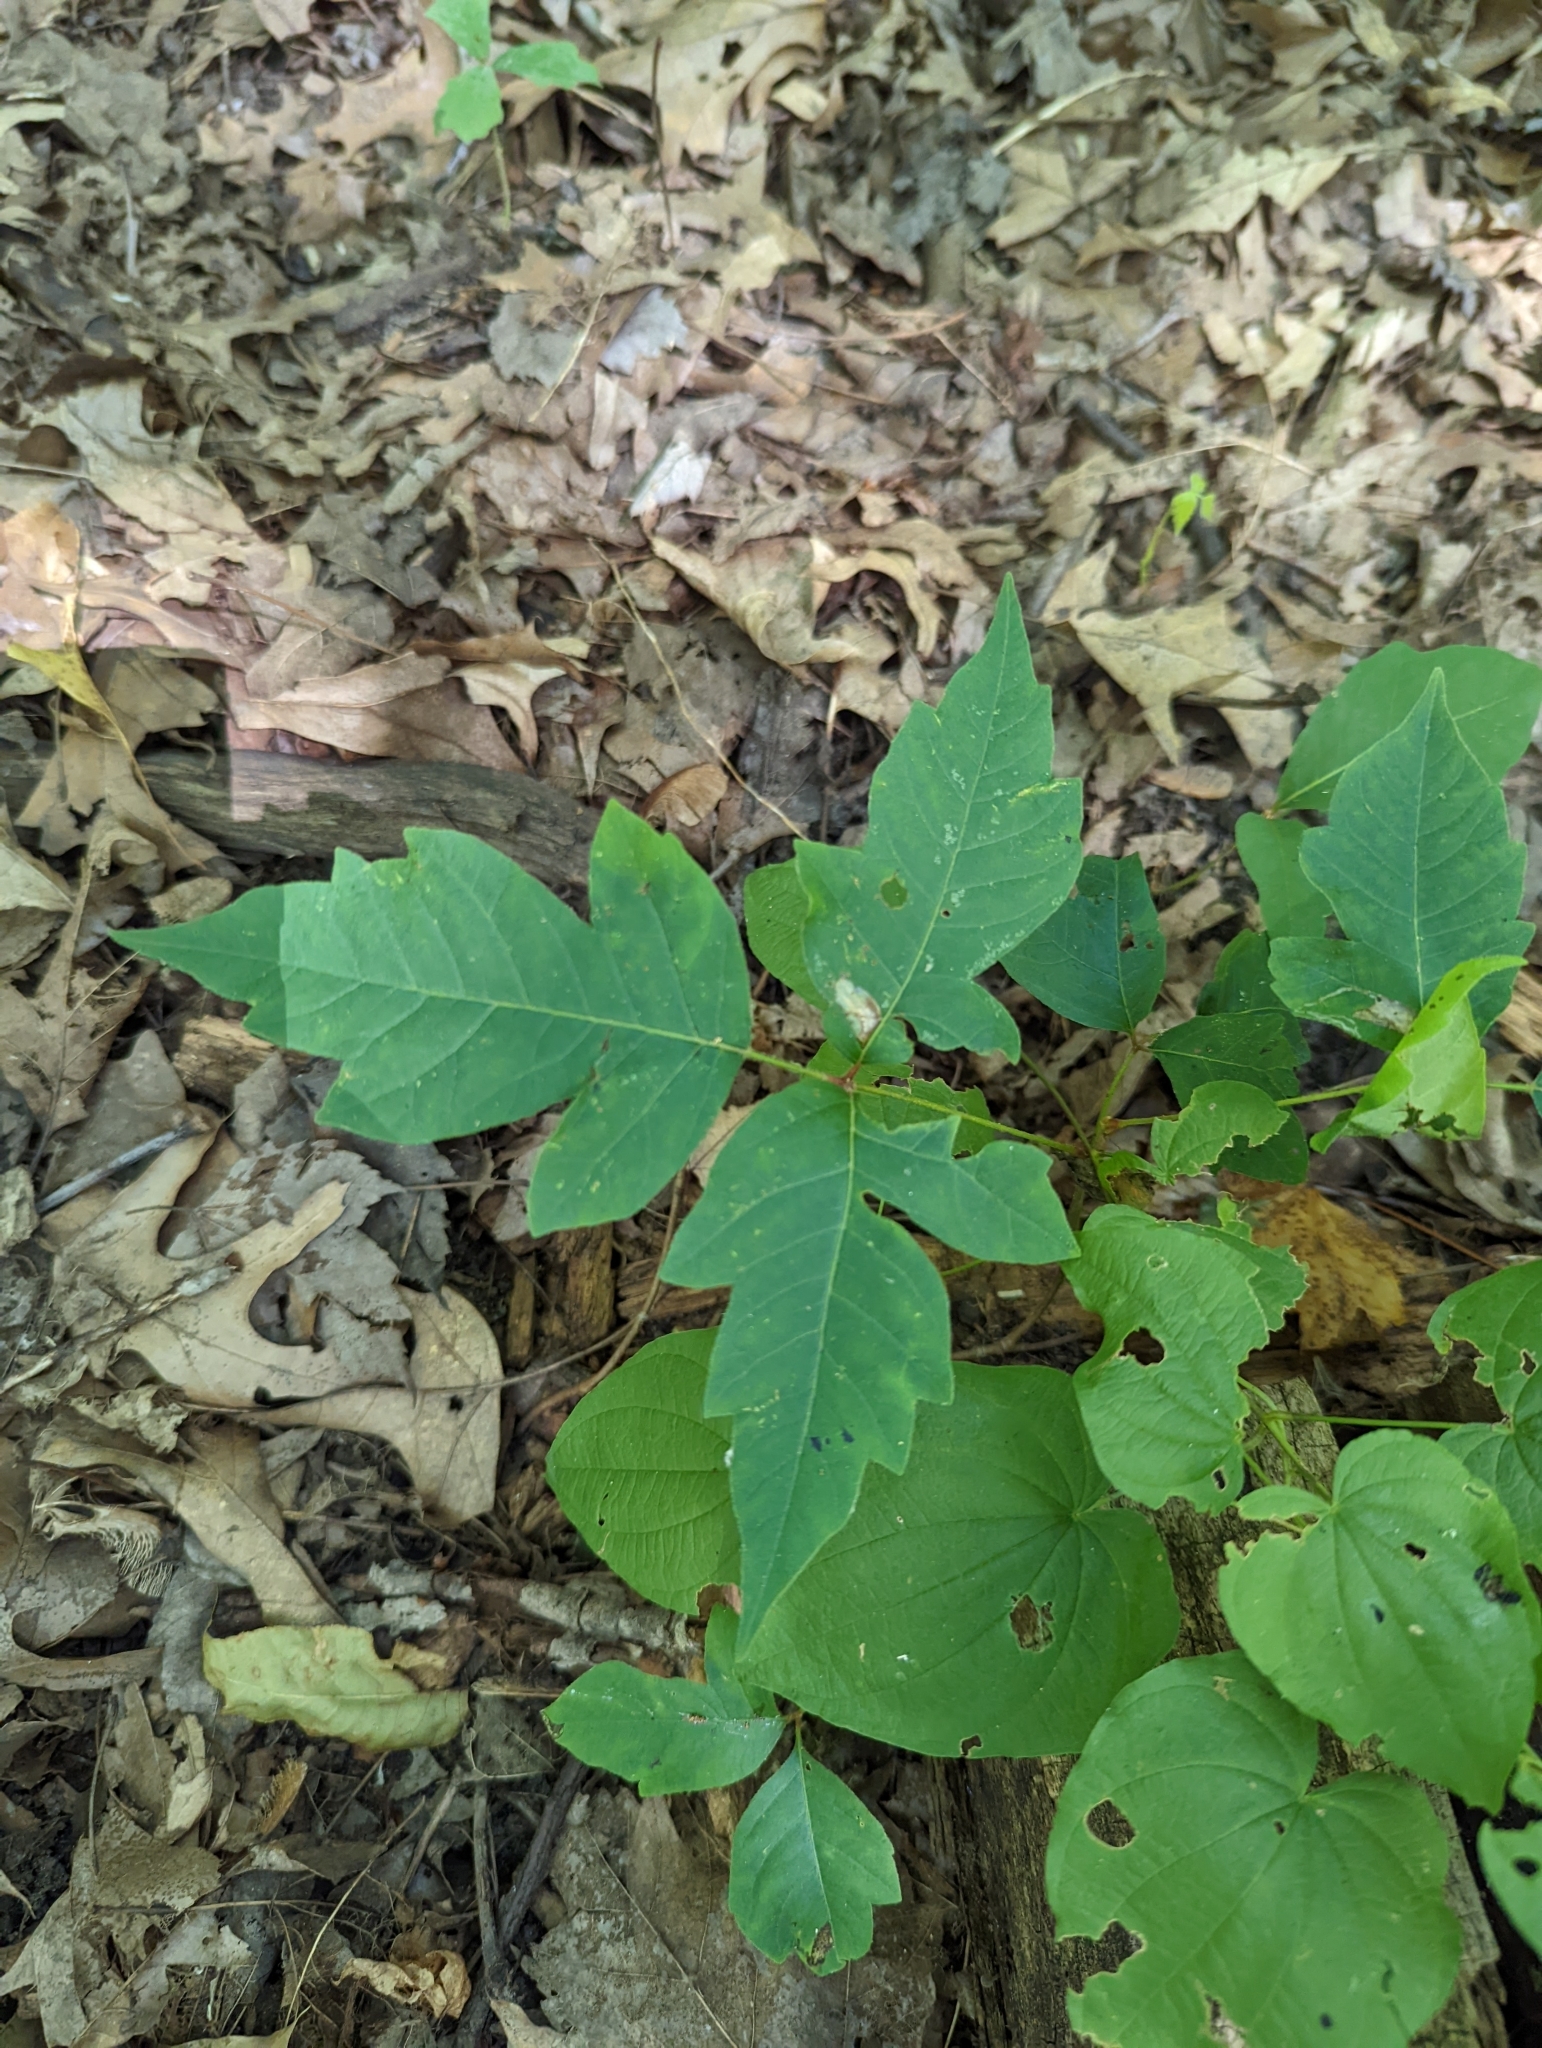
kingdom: Plantae
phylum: Tracheophyta
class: Magnoliopsida
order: Sapindales
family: Anacardiaceae
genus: Toxicodendron
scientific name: Toxicodendron radicans
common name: Poison ivy
